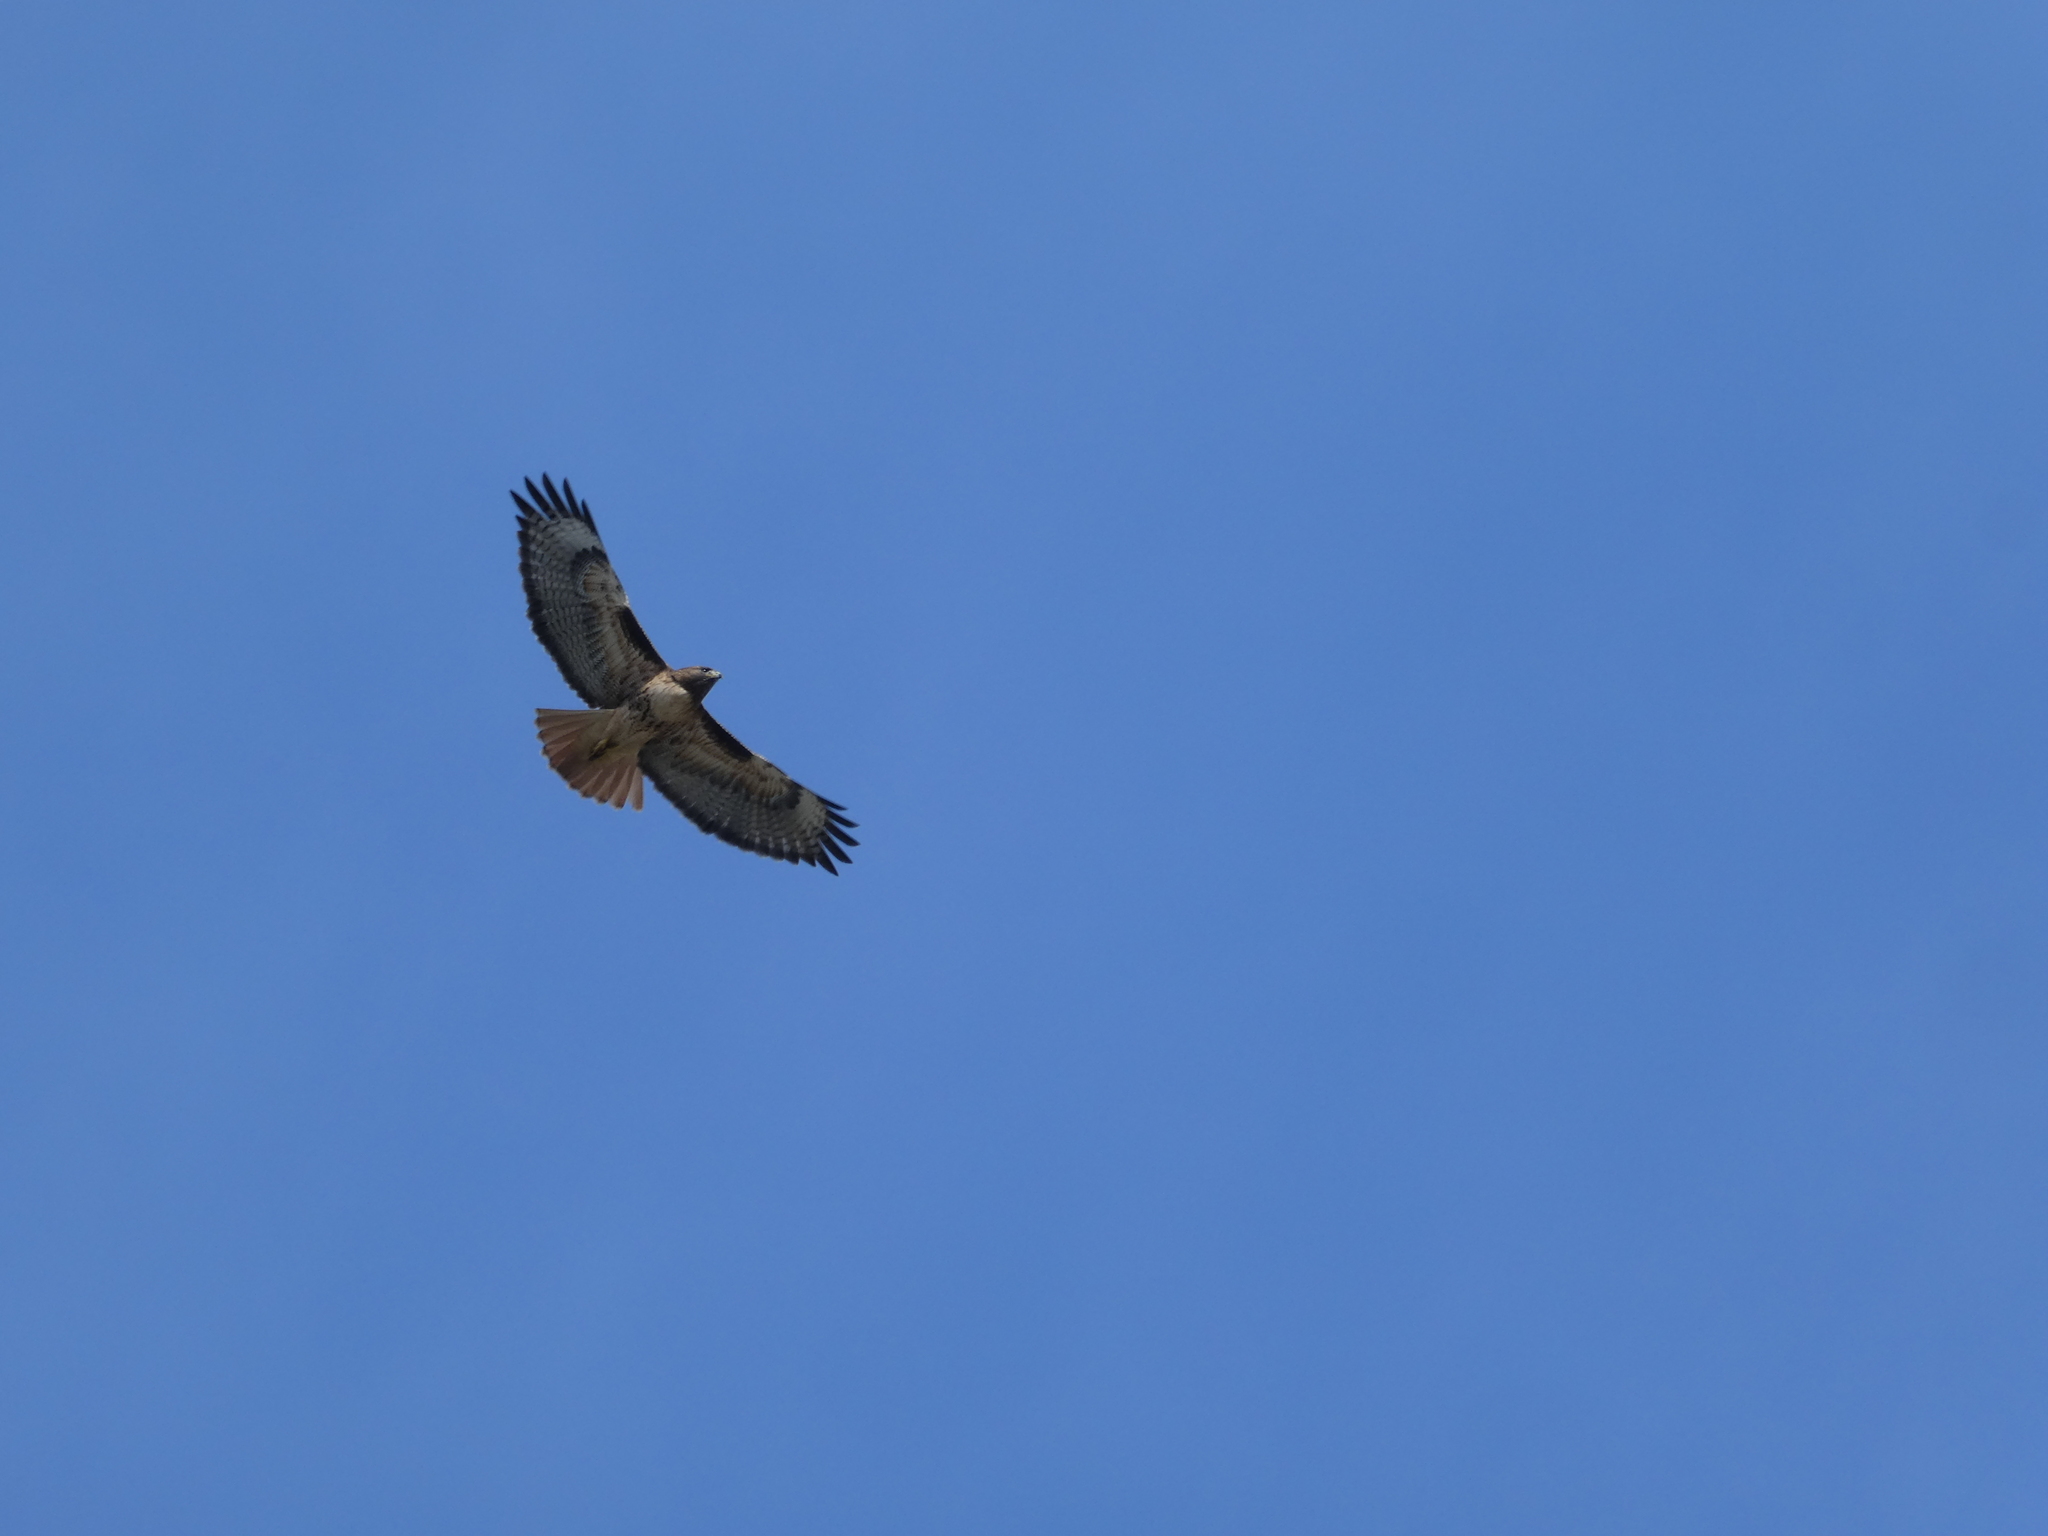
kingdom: Animalia
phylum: Chordata
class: Aves
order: Accipitriformes
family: Accipitridae
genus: Buteo
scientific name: Buteo jamaicensis
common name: Red-tailed hawk
